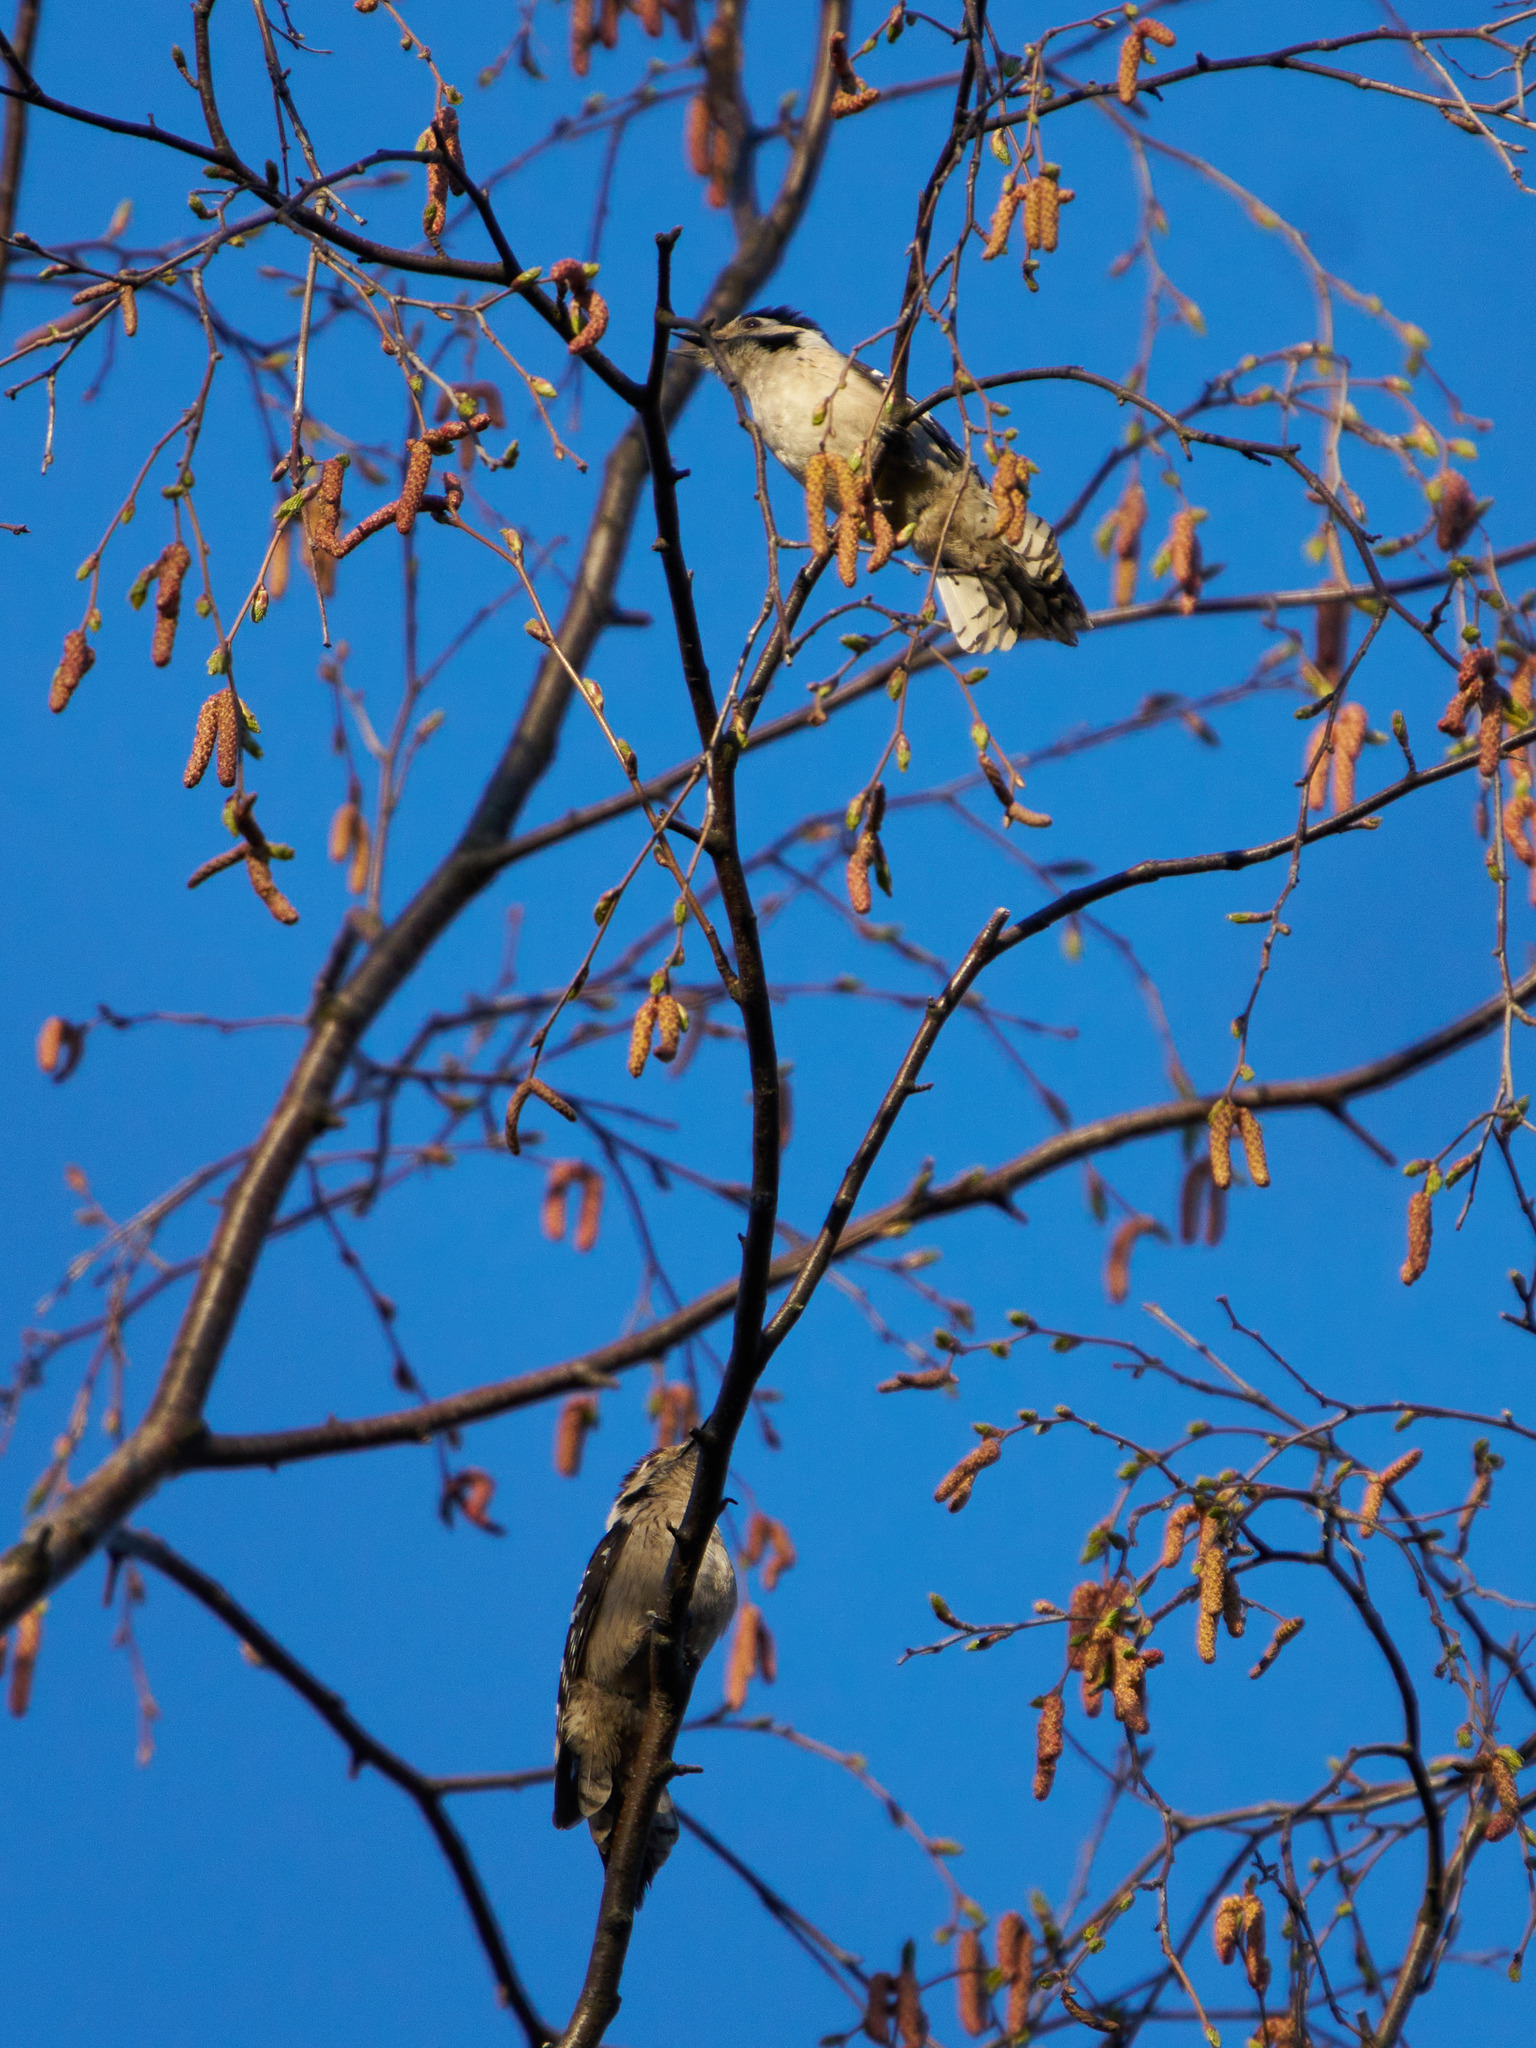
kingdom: Animalia
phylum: Chordata
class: Aves
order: Piciformes
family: Picidae
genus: Dryobates
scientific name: Dryobates minor
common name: Lesser spotted woodpecker
